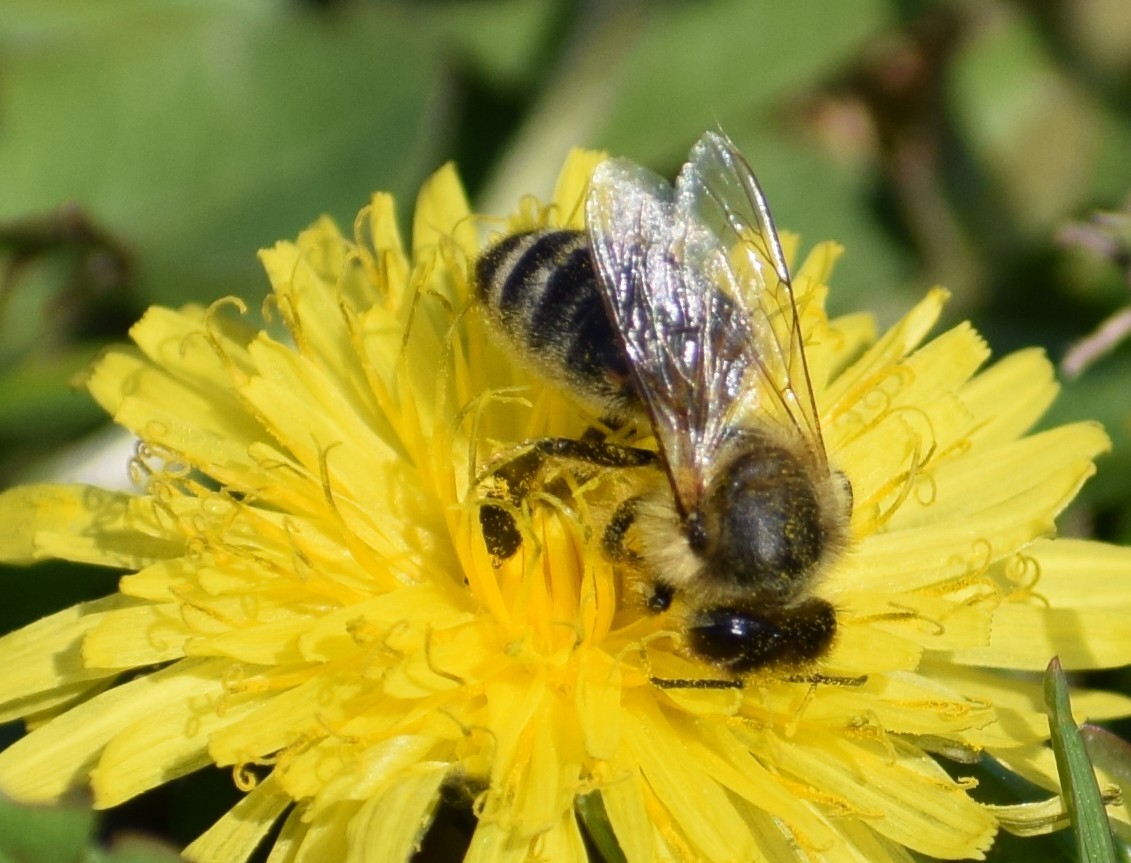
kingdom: Animalia
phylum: Arthropoda
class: Insecta
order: Hymenoptera
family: Apidae
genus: Apis
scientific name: Apis mellifera
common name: Honey bee
